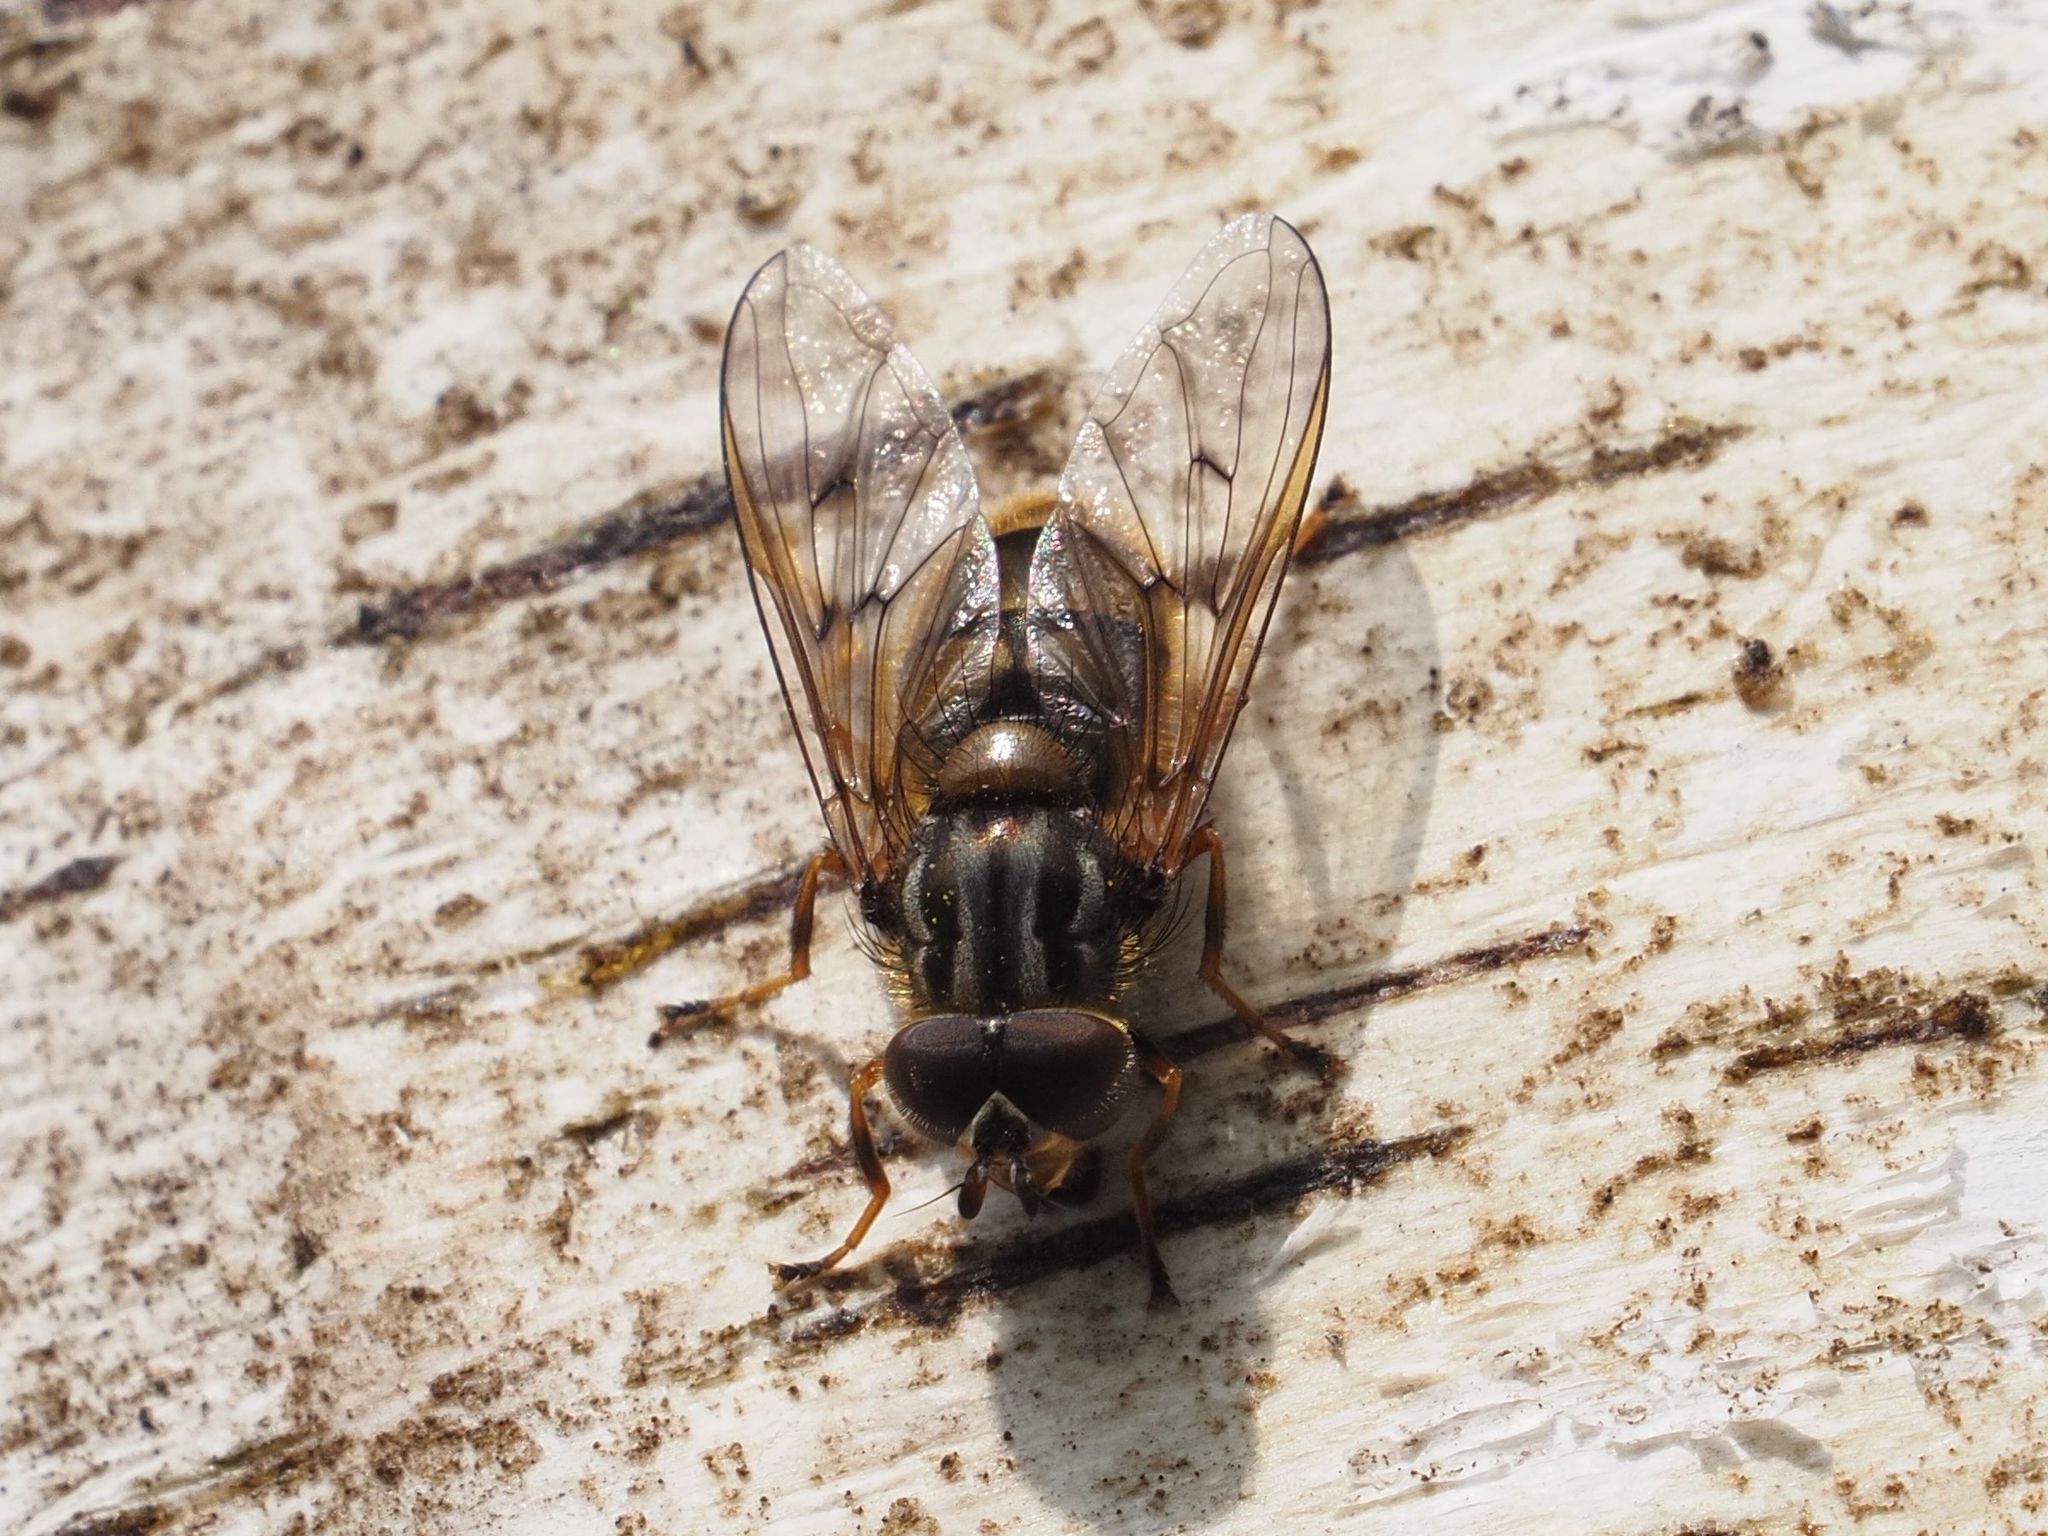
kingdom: Animalia
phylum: Arthropoda
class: Insecta
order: Diptera
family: Syrphidae
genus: Ferdinandea
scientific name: Ferdinandea cuprea
